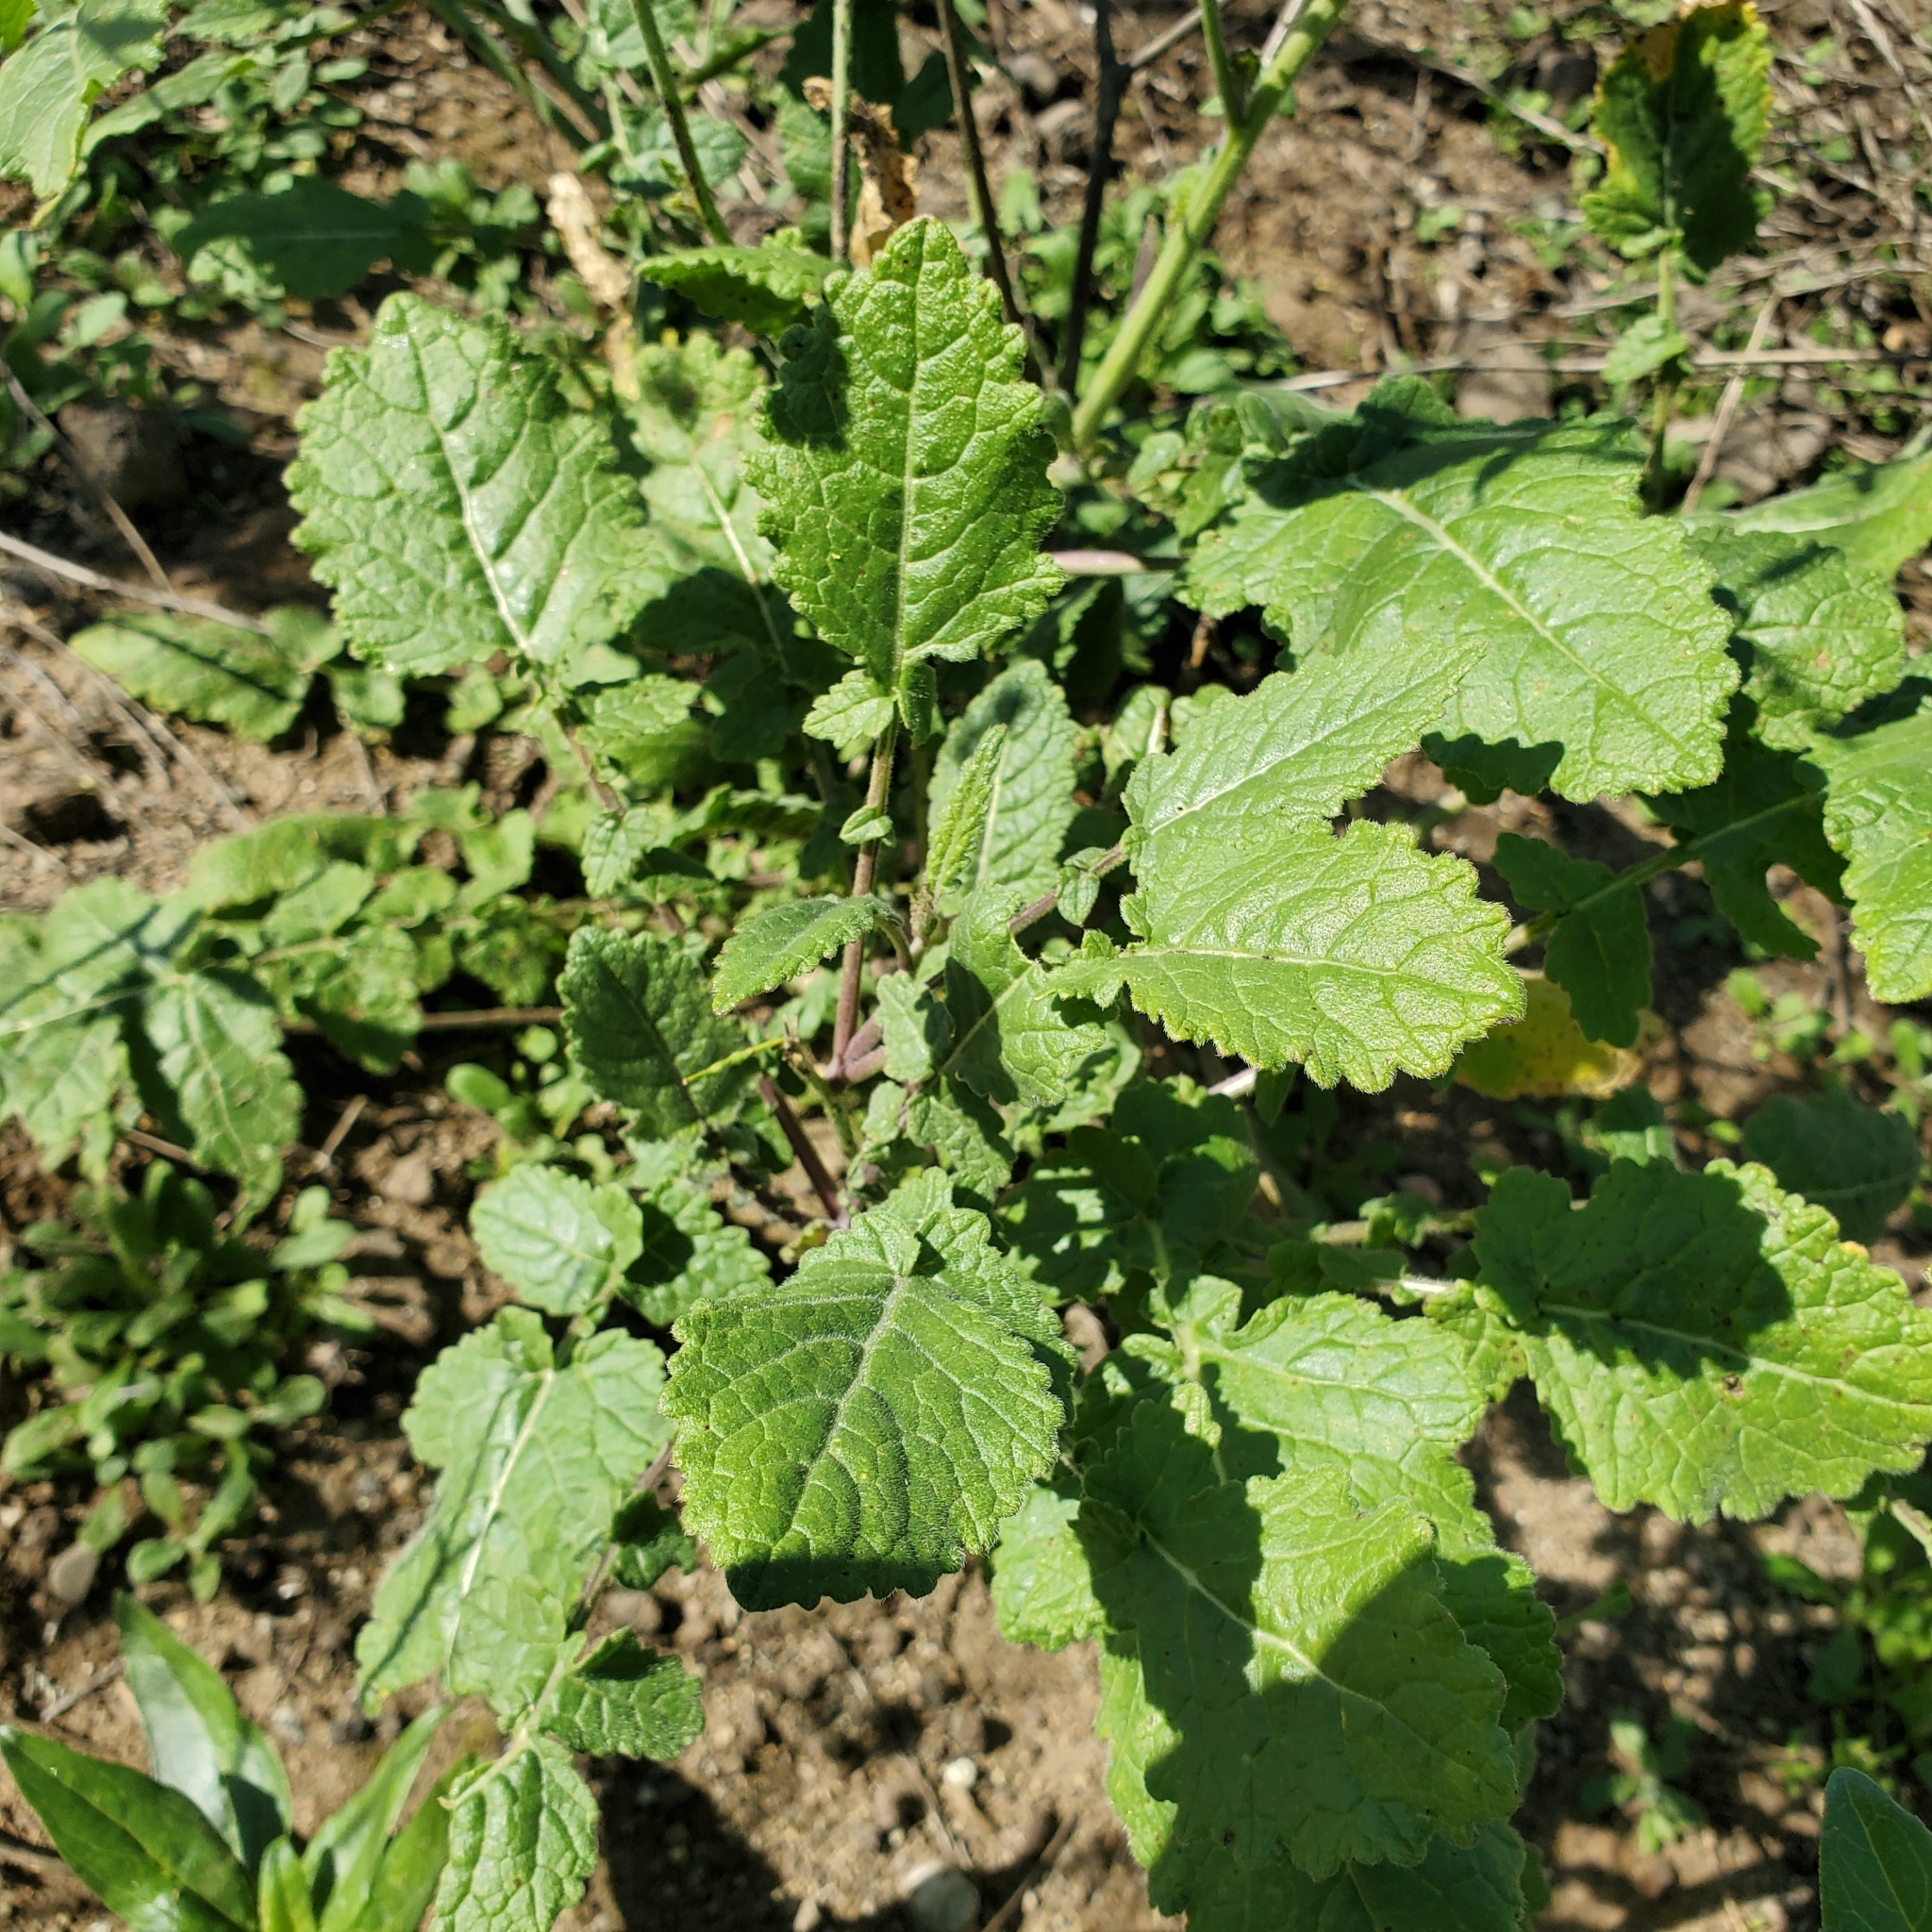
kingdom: Plantae
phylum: Tracheophyta
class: Magnoliopsida
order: Brassicales
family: Brassicaceae
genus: Hirschfeldia
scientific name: Hirschfeldia incana
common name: Hoary mustard
